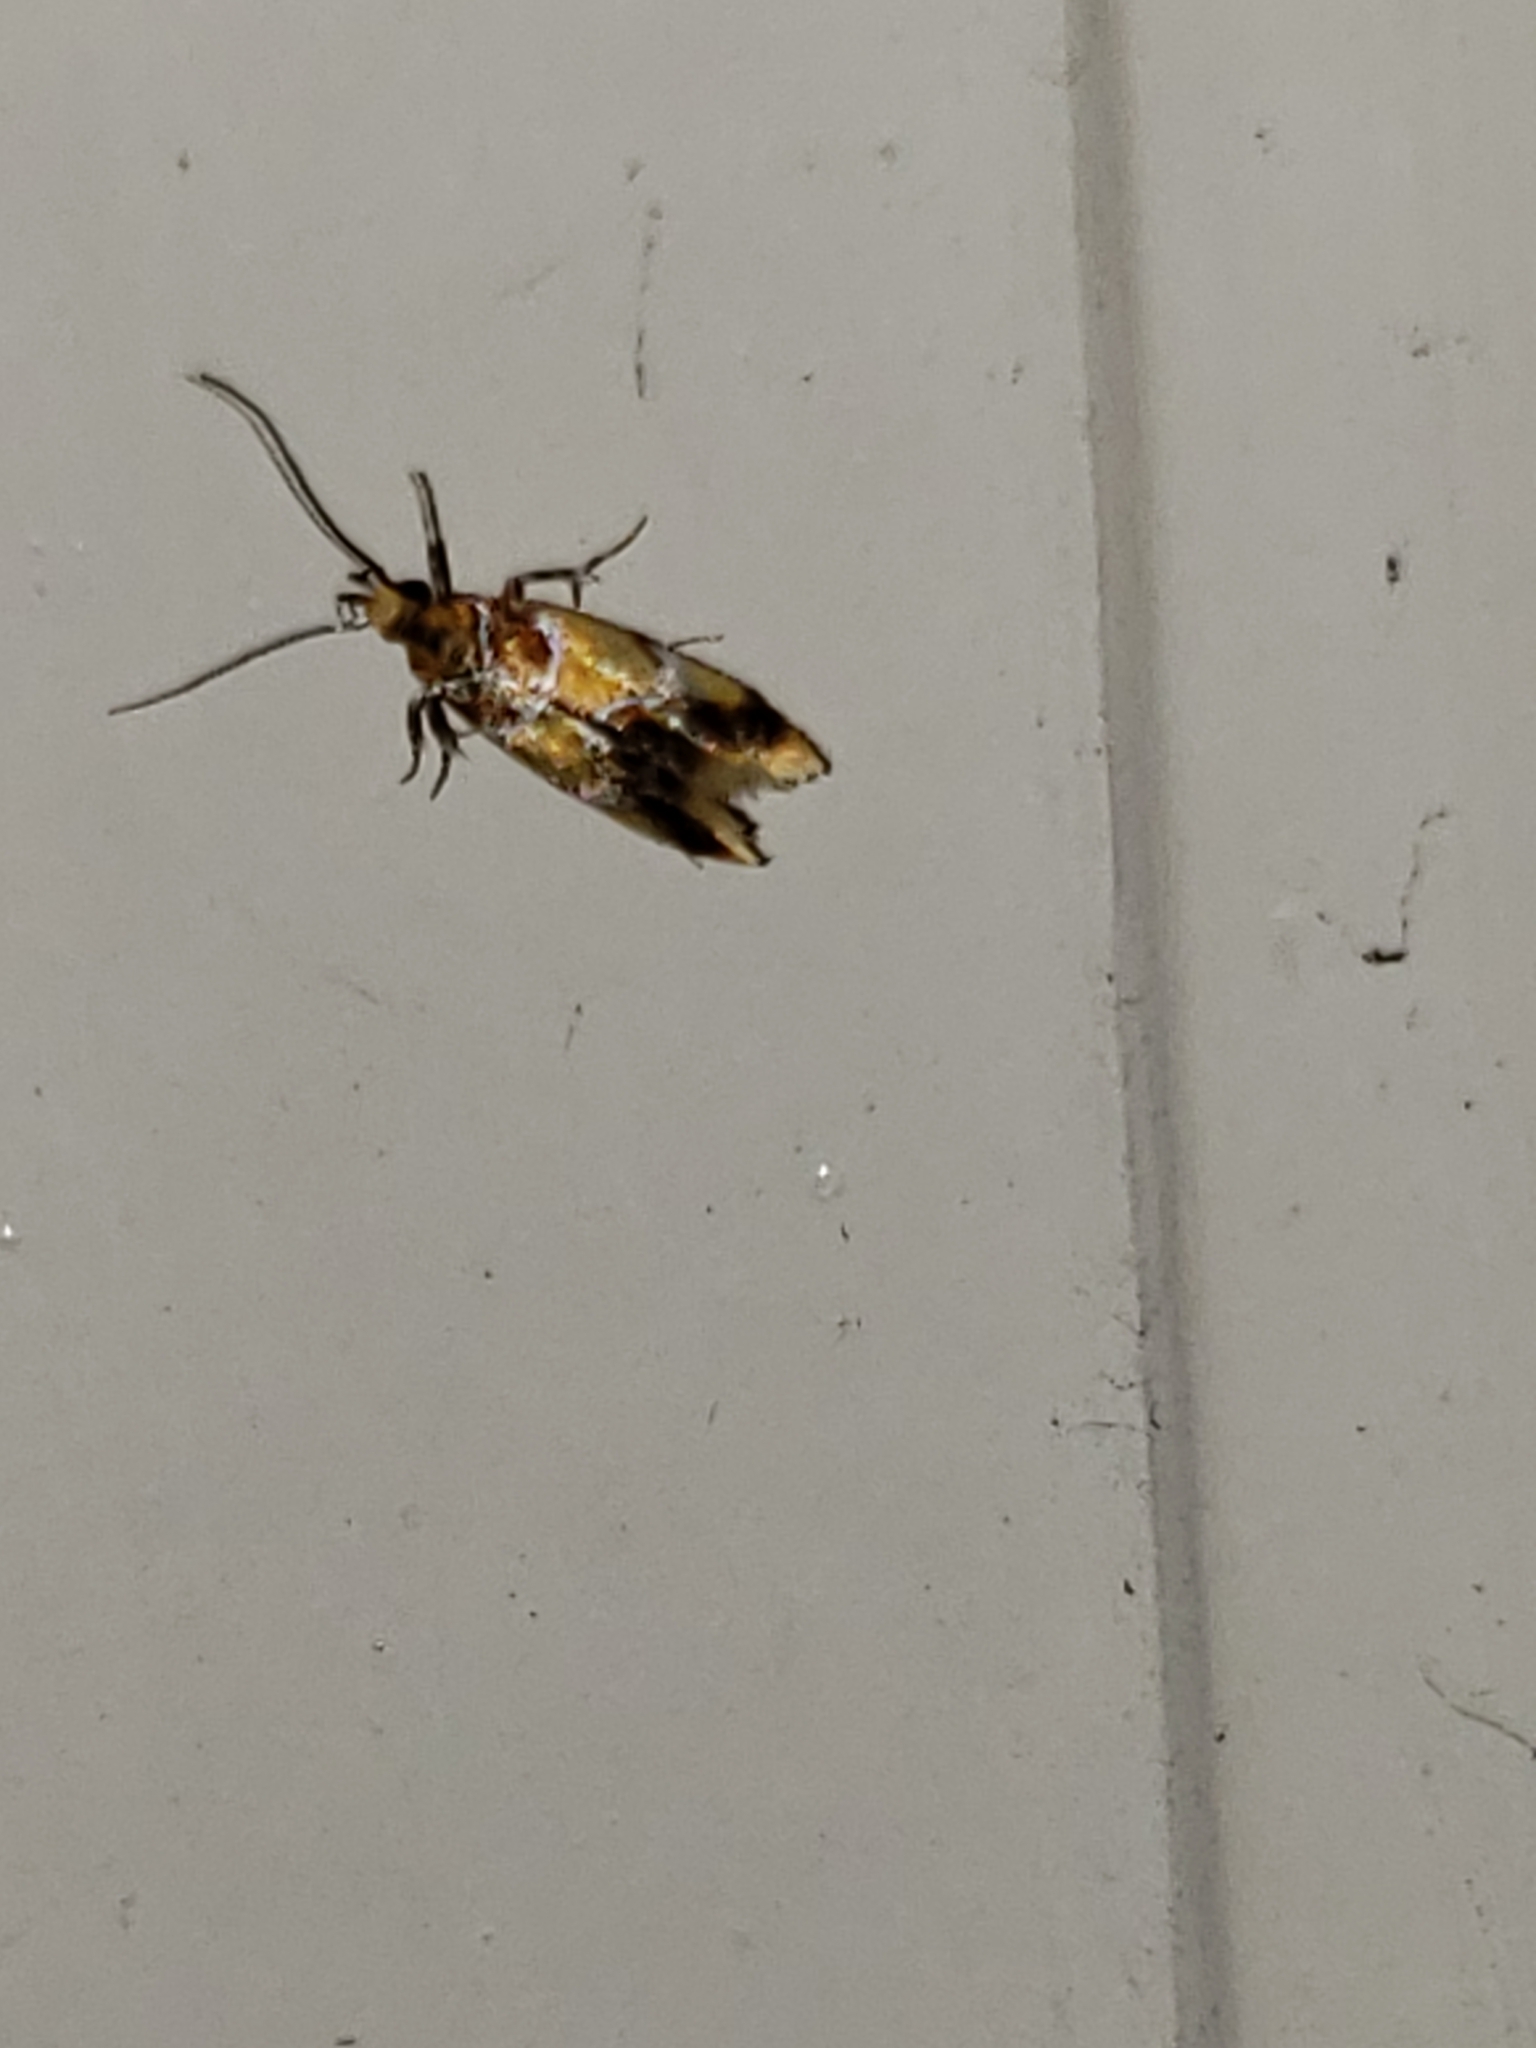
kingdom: Animalia
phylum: Arthropoda
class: Insecta
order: Lepidoptera
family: Oecophoridae
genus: Callima
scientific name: Callima argenticinctella
